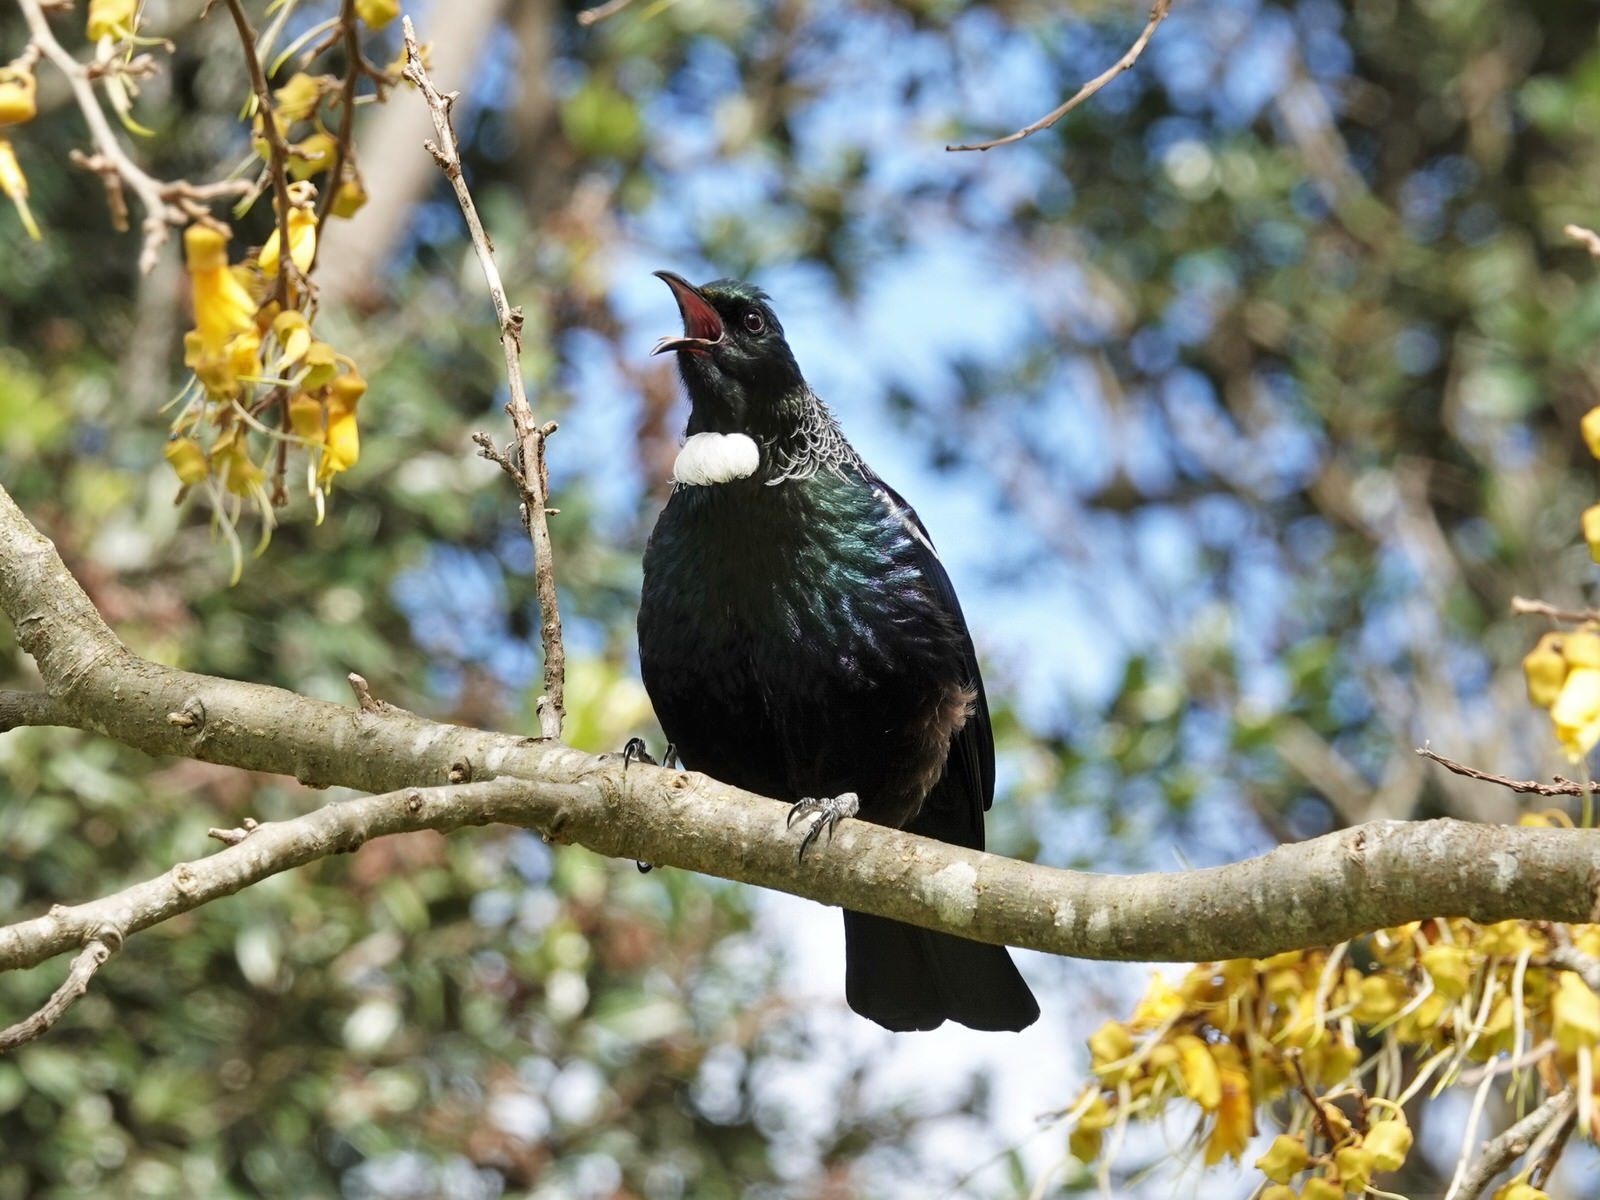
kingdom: Animalia
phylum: Chordata
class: Aves
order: Passeriformes
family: Meliphagidae
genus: Prosthemadera
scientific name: Prosthemadera novaeseelandiae
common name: Tui
